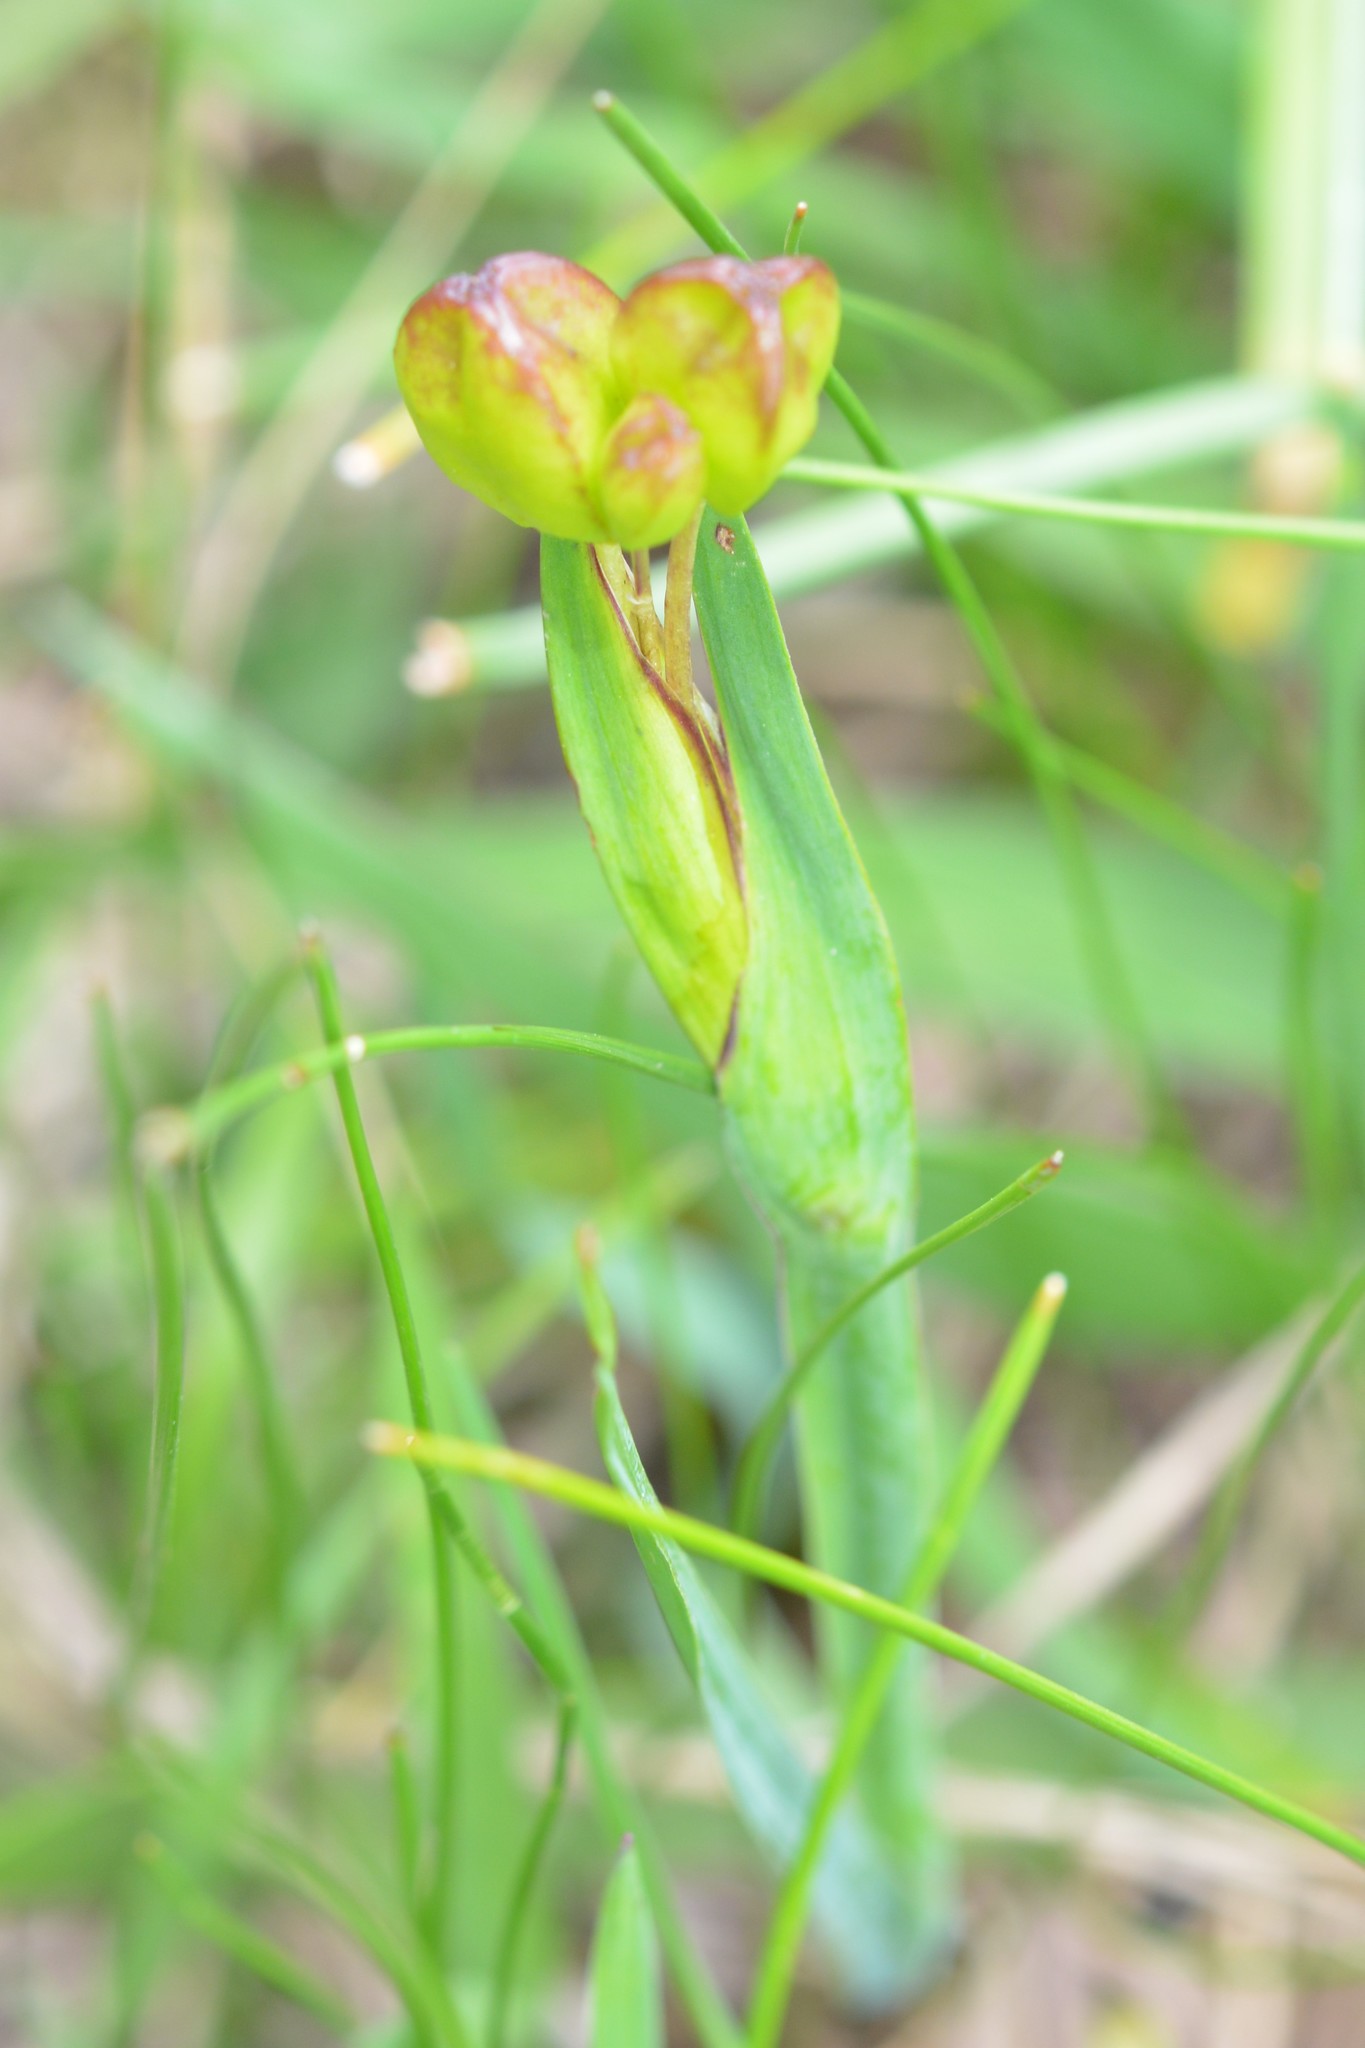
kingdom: Plantae
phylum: Tracheophyta
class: Liliopsida
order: Asparagales
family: Iridaceae
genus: Sisyrinchium
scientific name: Sisyrinchium angustissimum
